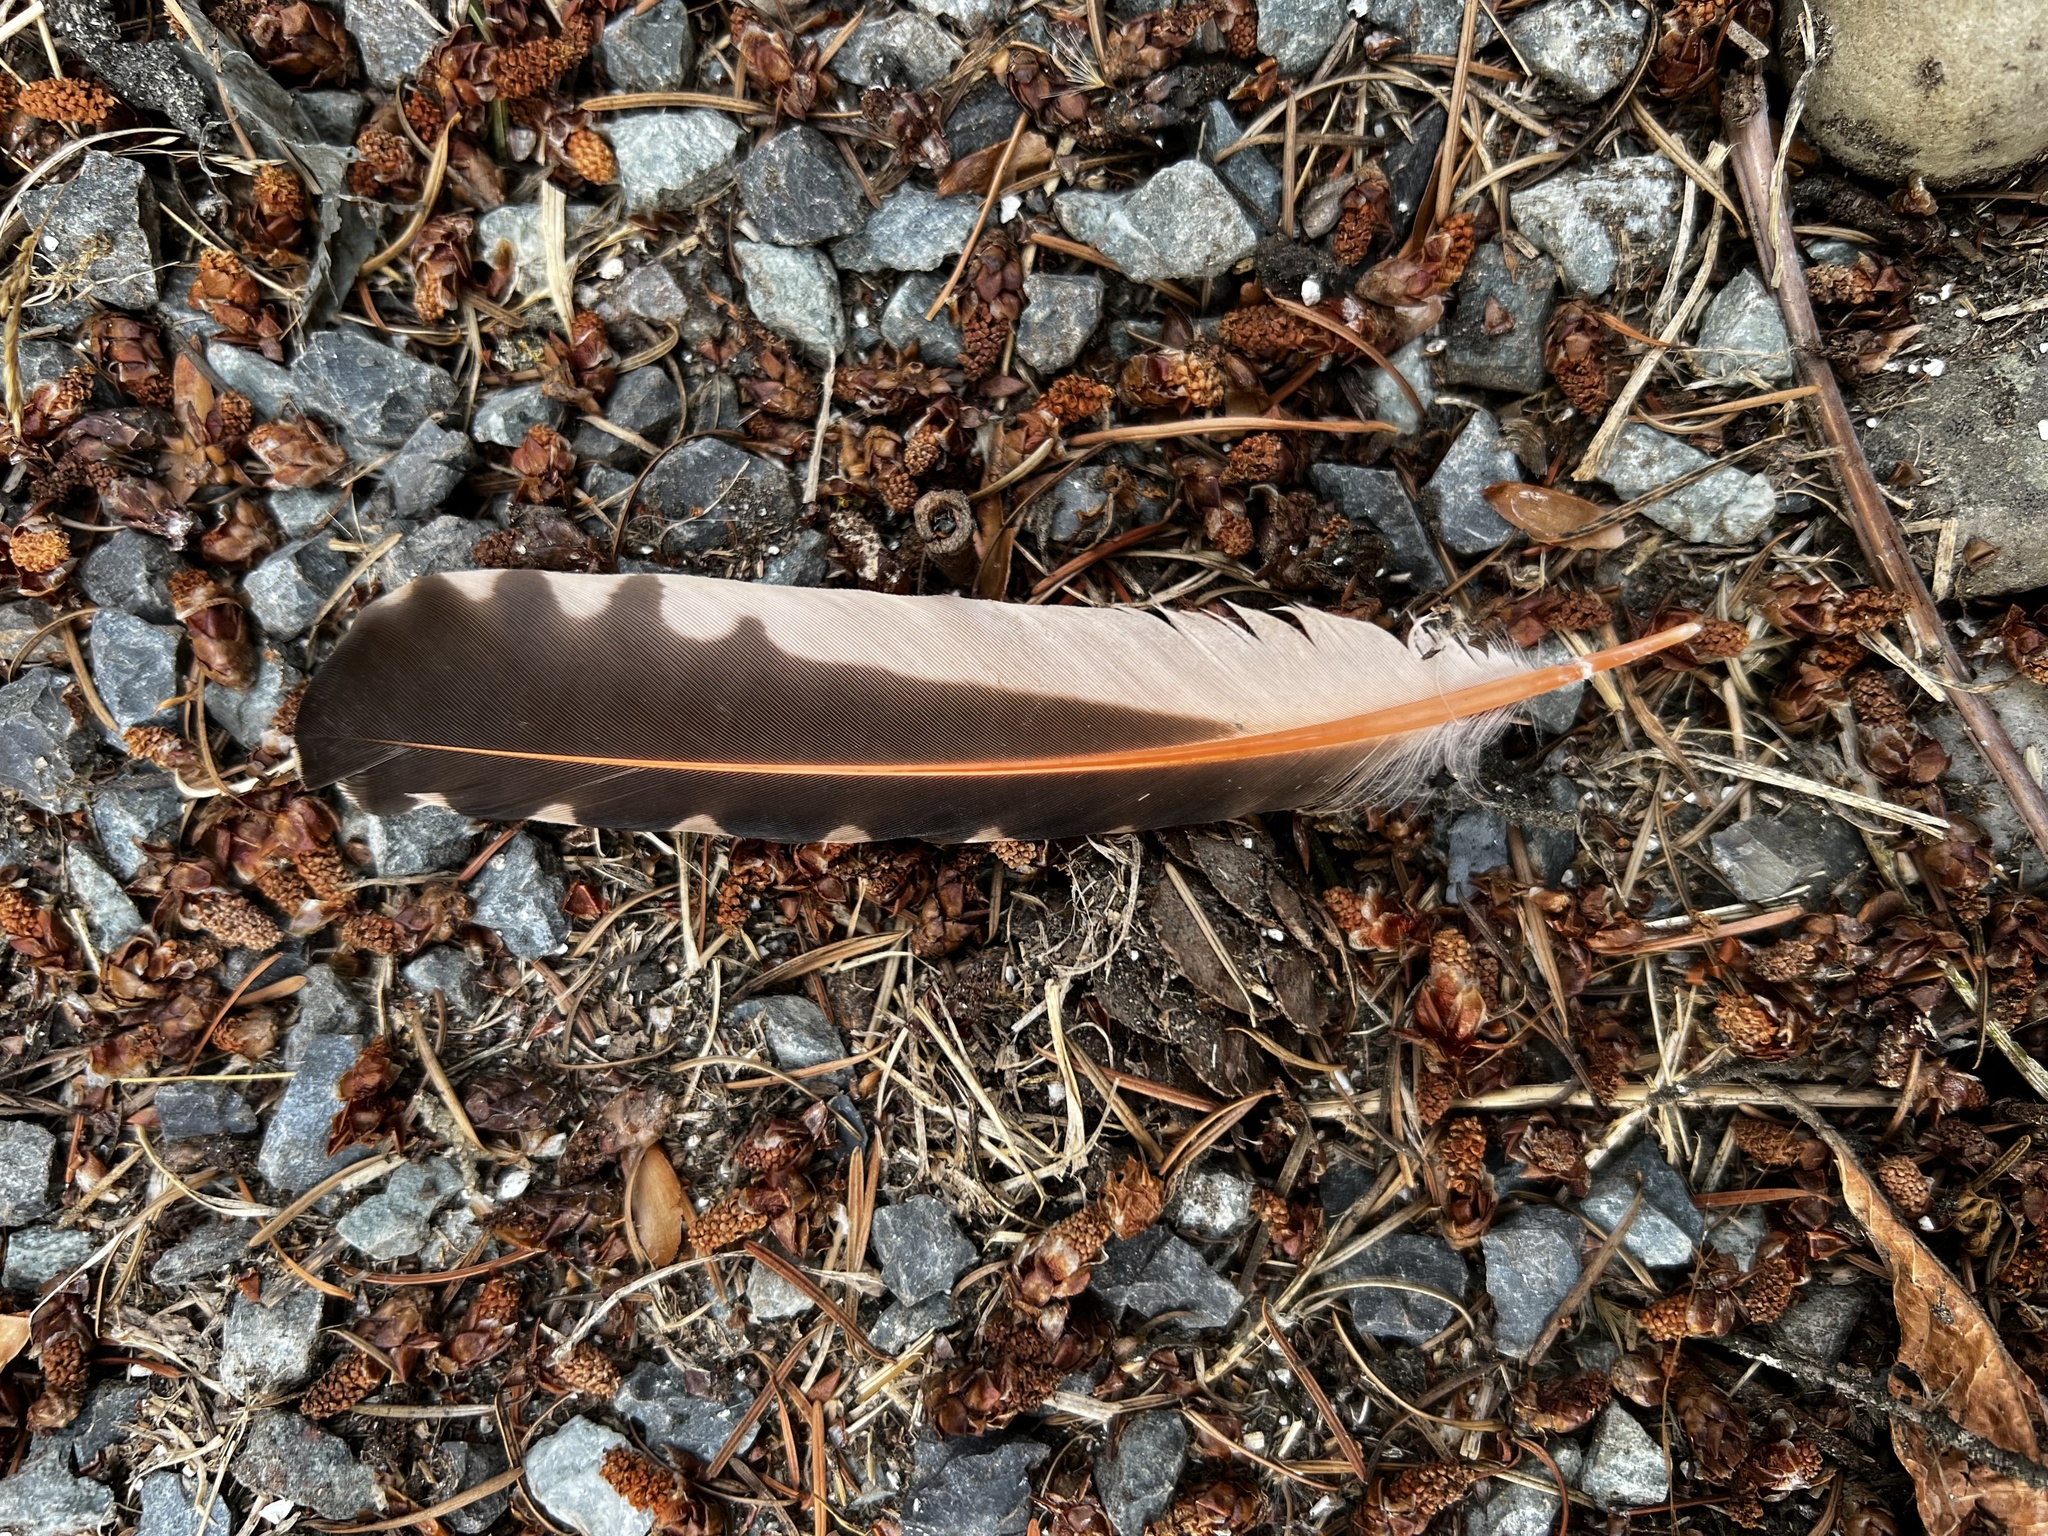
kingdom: Animalia
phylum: Chordata
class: Aves
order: Piciformes
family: Picidae
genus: Colaptes
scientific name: Colaptes auratus
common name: Northern flicker
